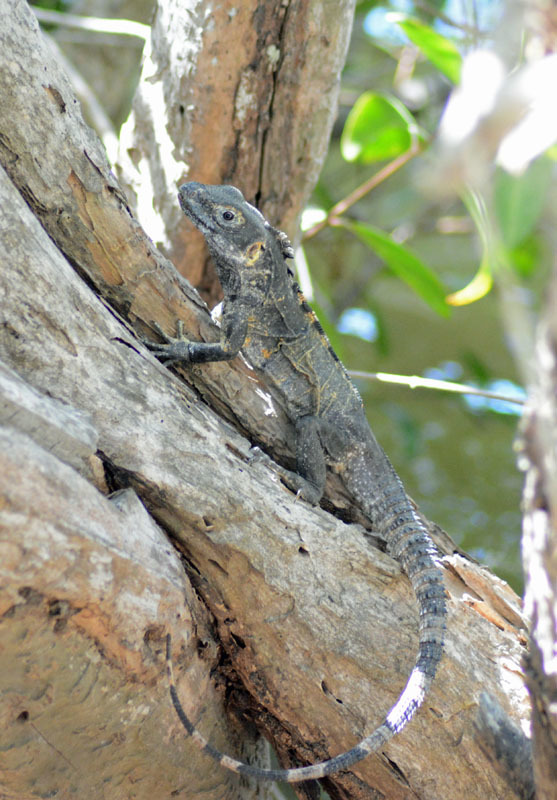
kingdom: Animalia
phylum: Chordata
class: Squamata
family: Iguanidae
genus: Ctenosaura
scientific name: Ctenosaura pectinata
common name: Guerreran spiny-tailed iguana
